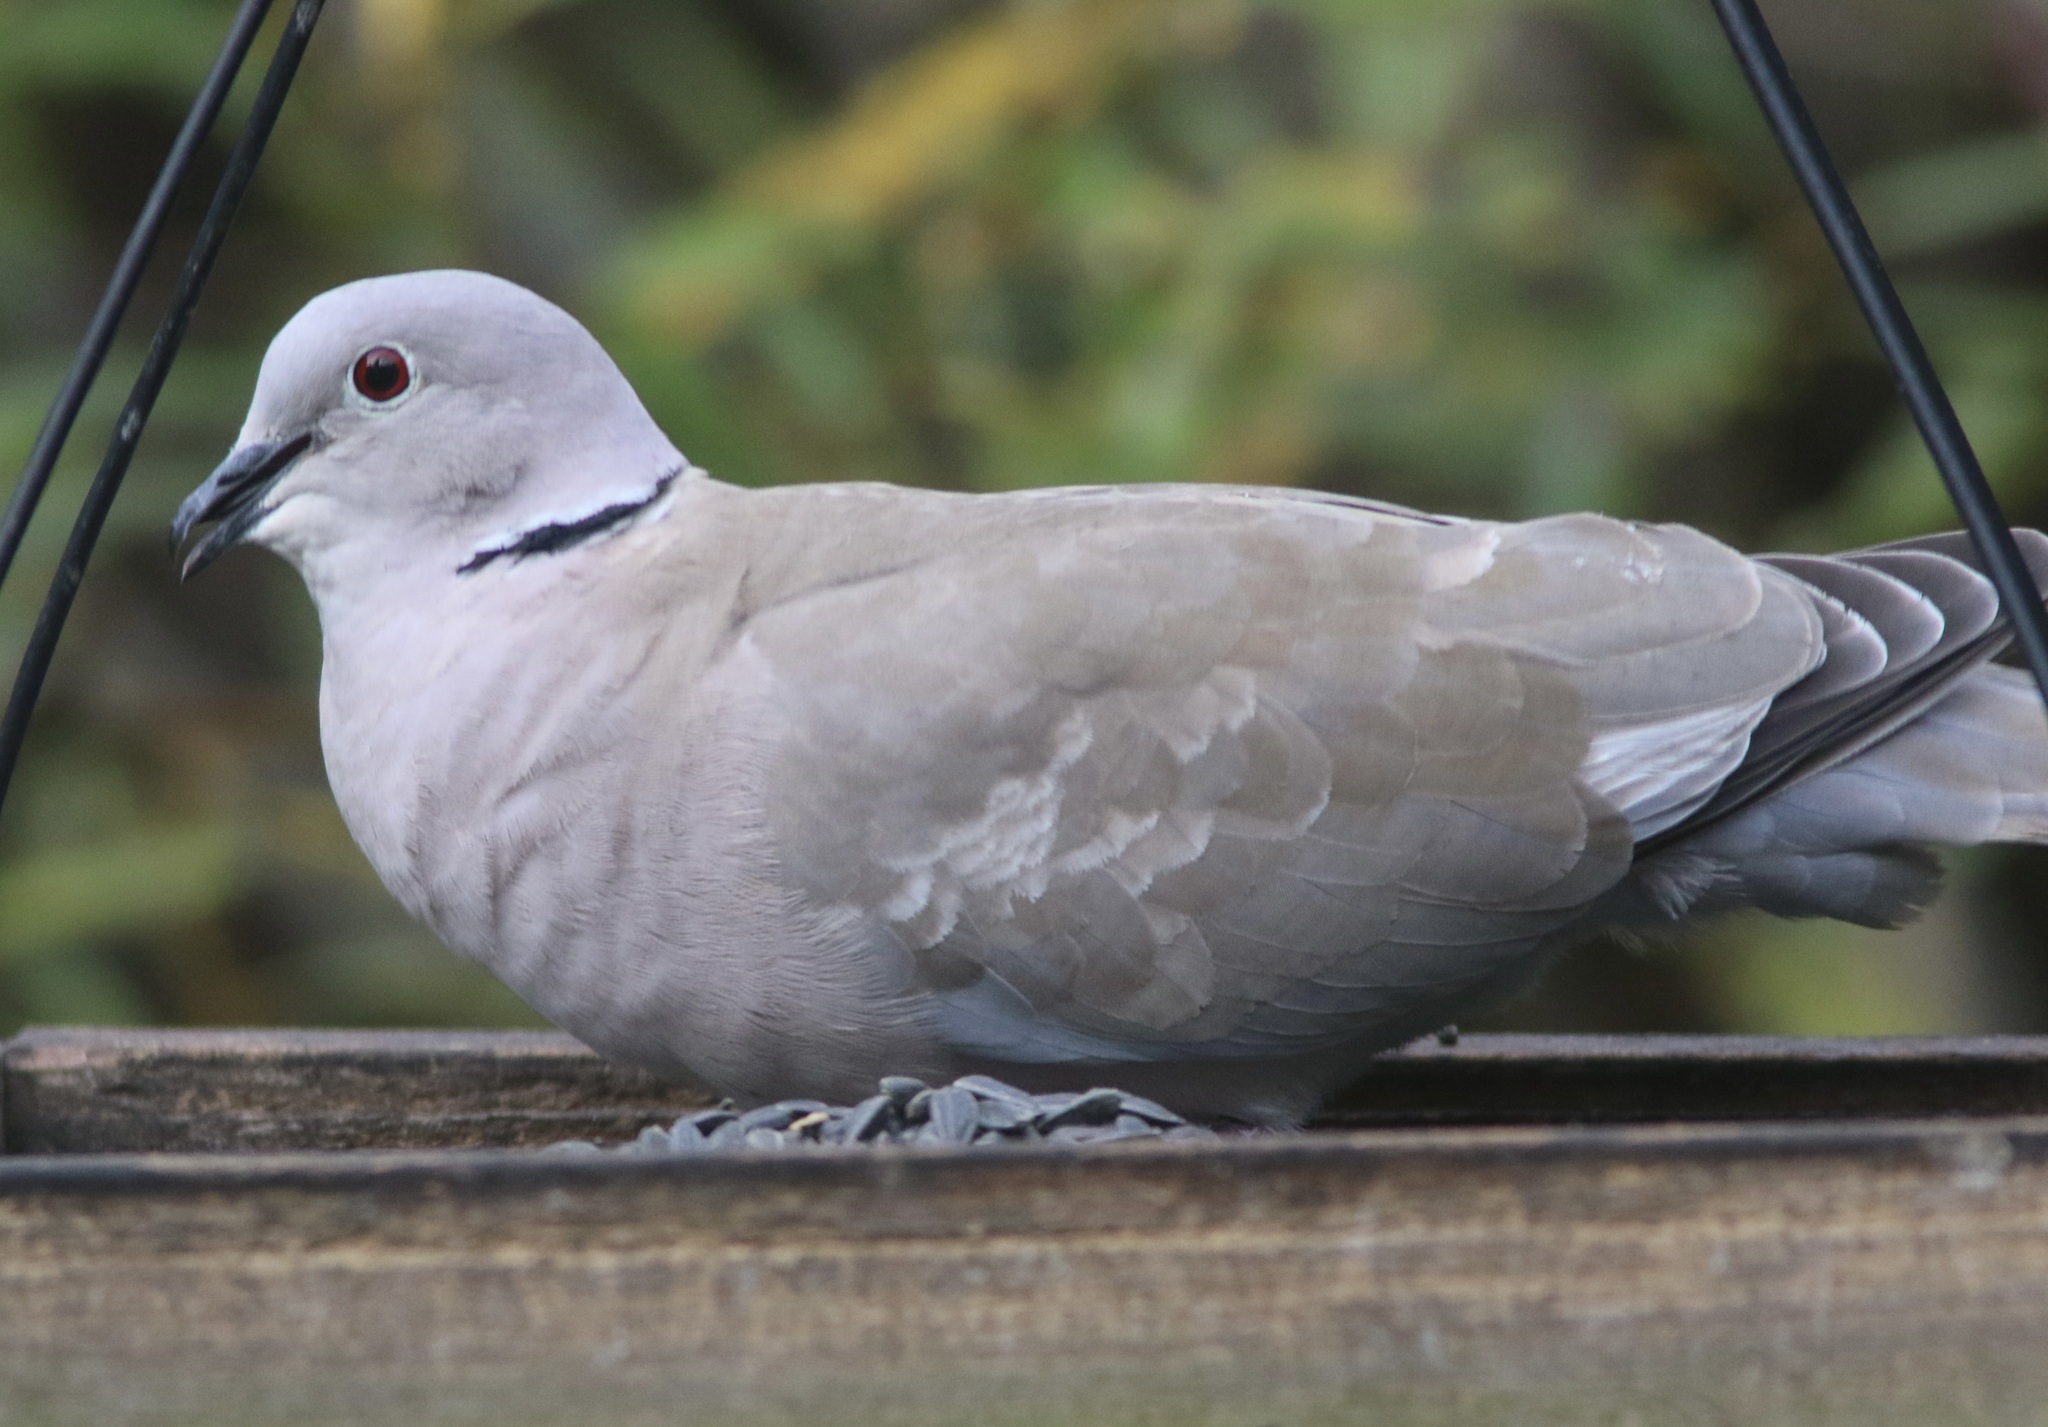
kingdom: Animalia
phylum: Chordata
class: Aves
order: Columbiformes
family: Columbidae
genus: Streptopelia
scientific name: Streptopelia decaocto
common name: Eurasian collared dove
